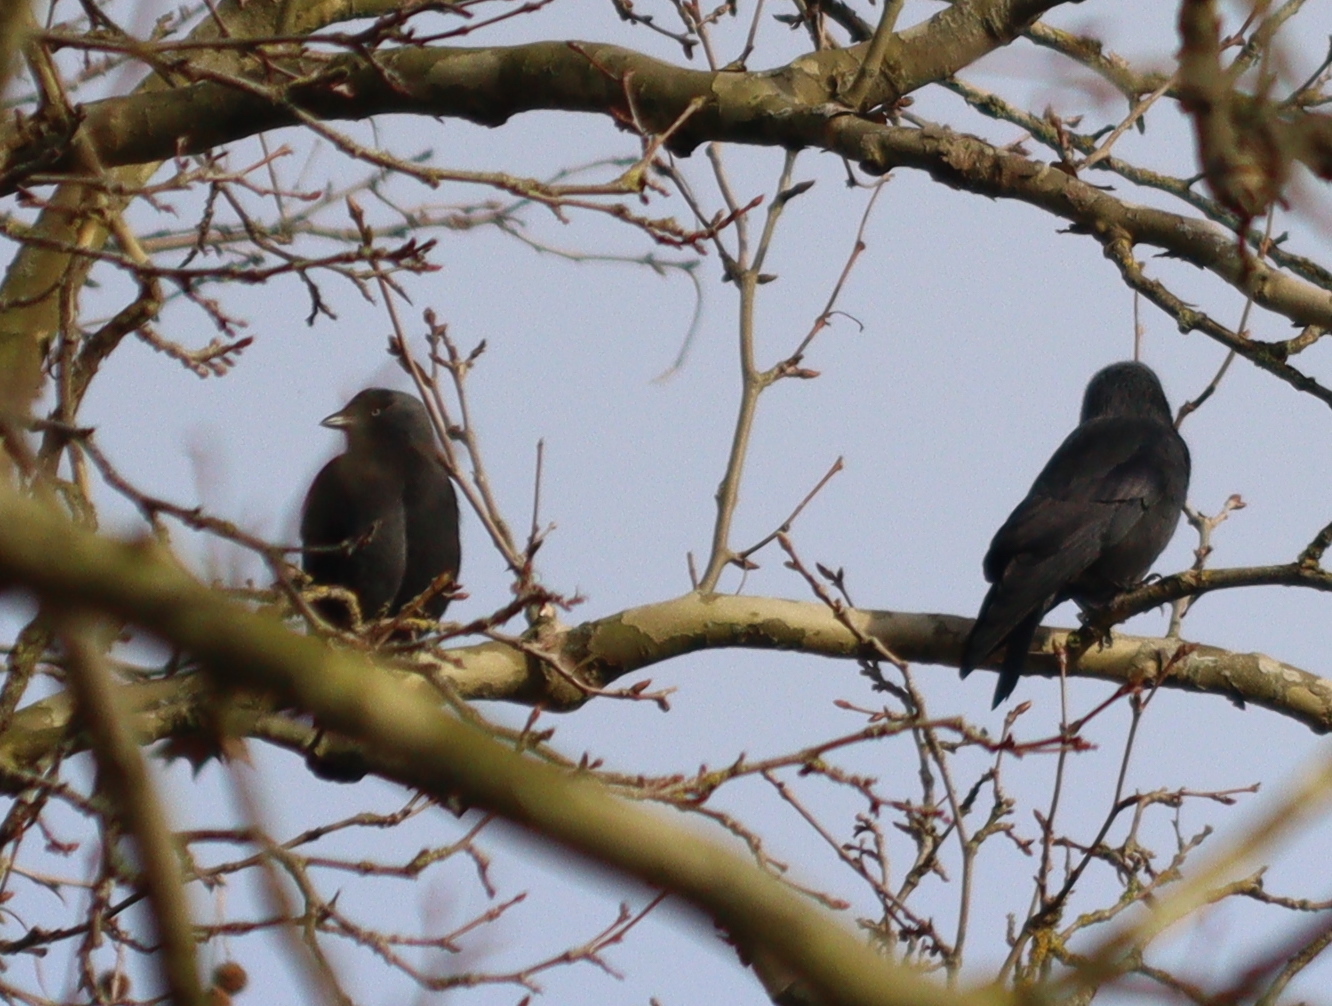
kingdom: Animalia
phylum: Chordata
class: Aves
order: Passeriformes
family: Corvidae
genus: Coloeus
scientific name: Coloeus monedula
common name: Western jackdaw
